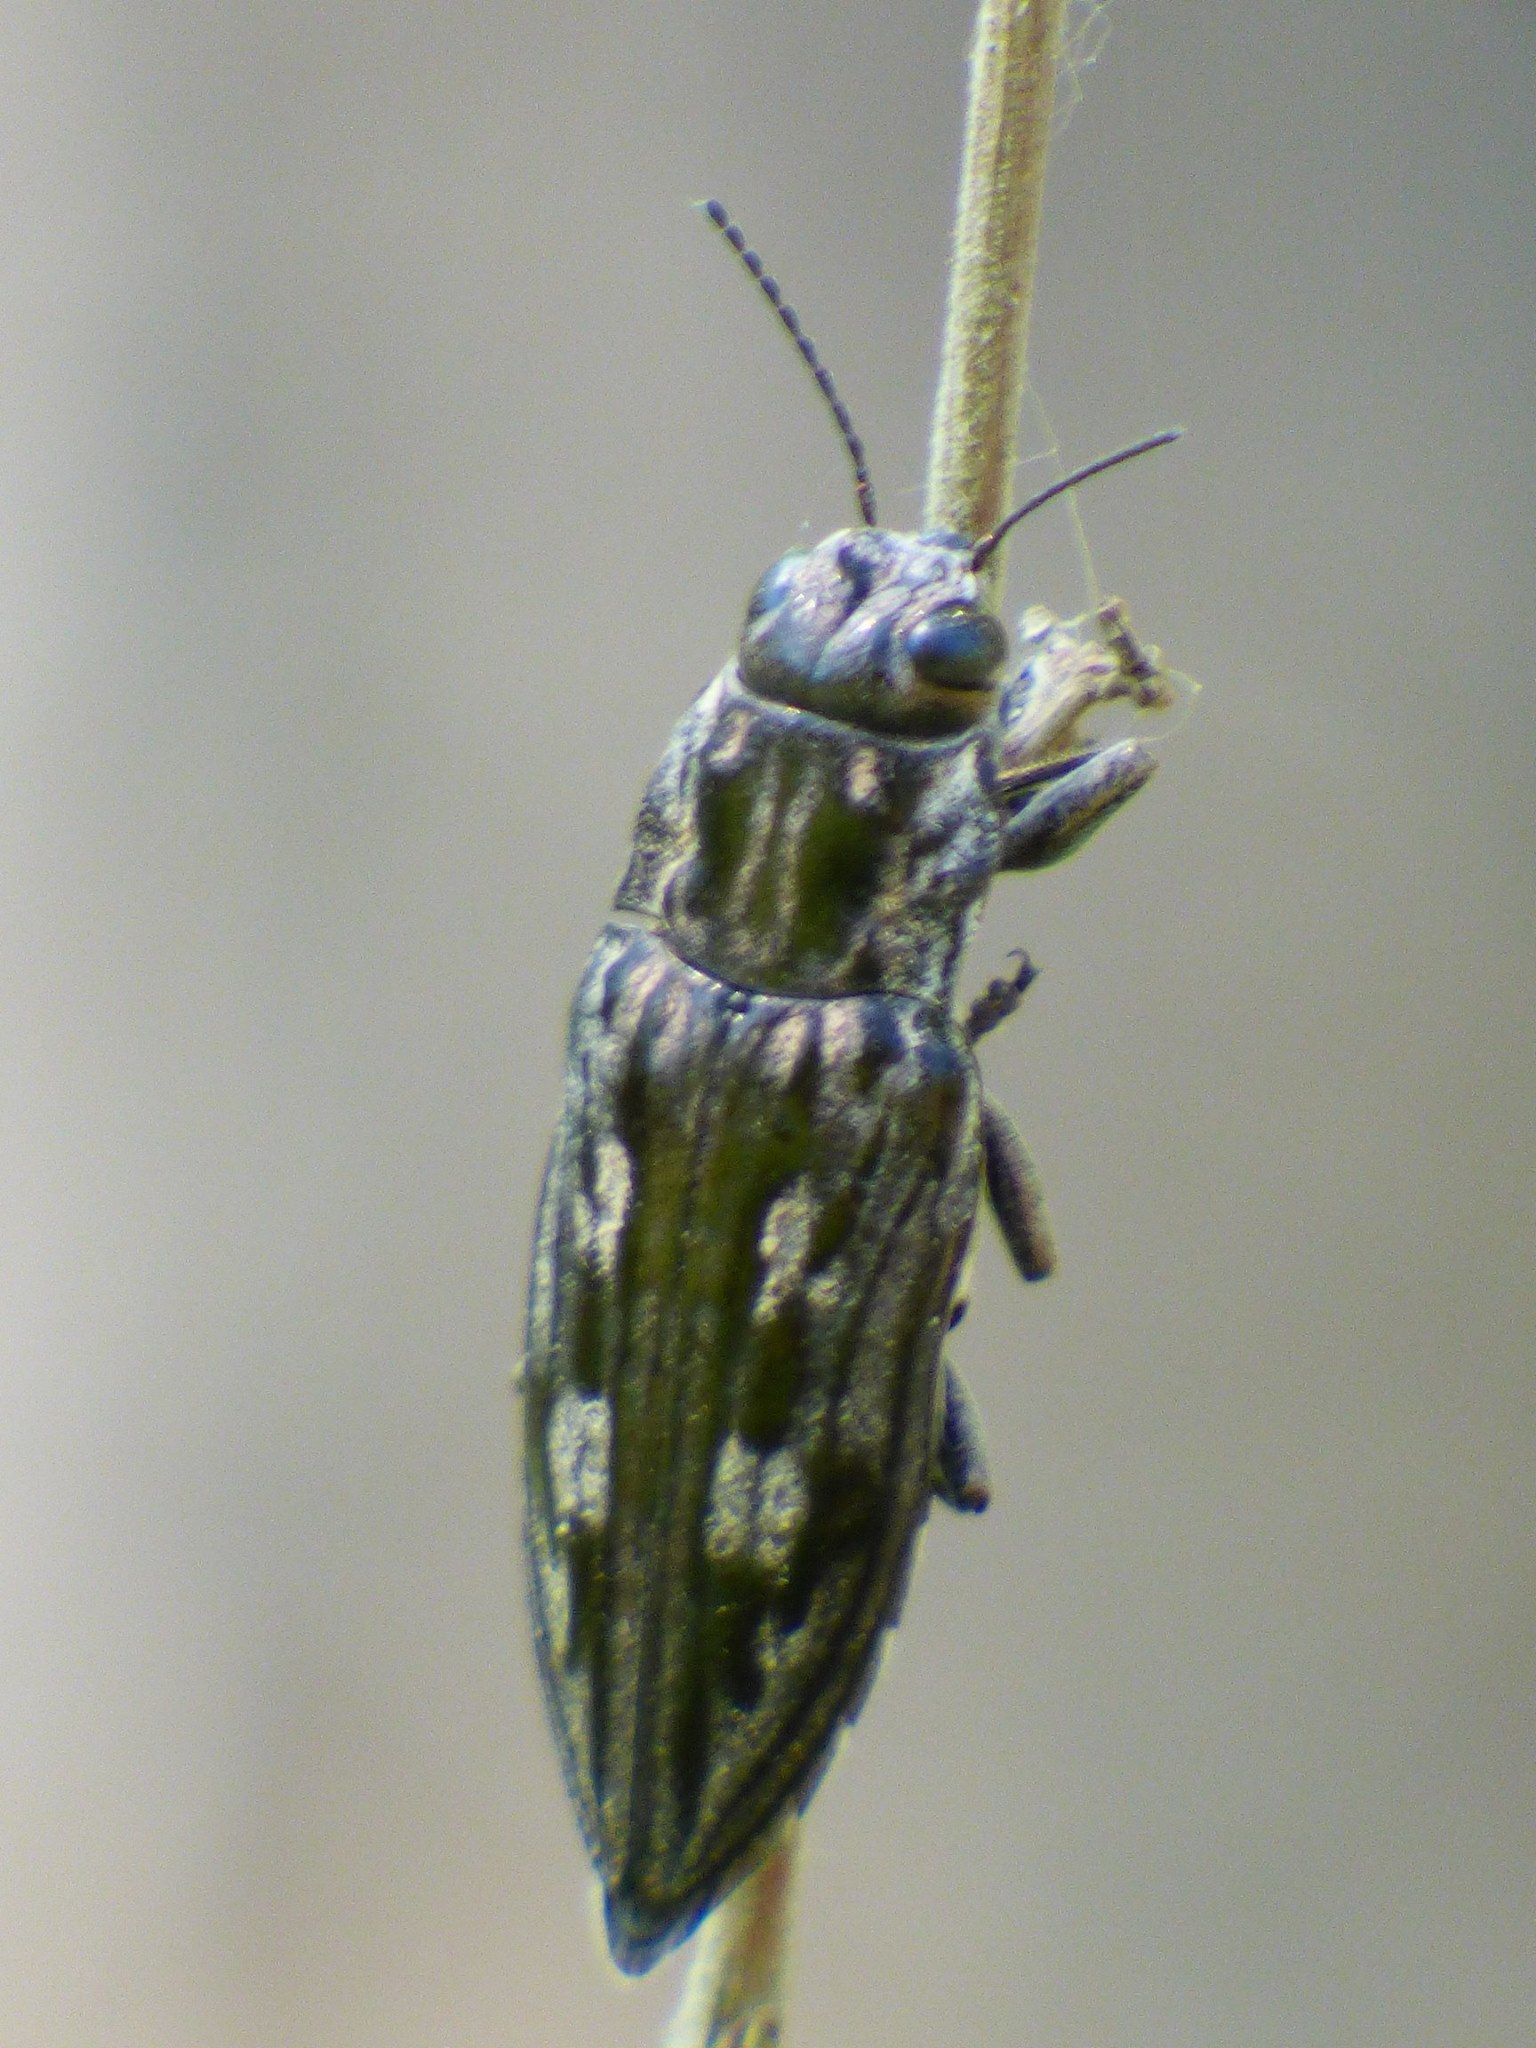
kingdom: Animalia
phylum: Arthropoda
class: Insecta
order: Coleoptera
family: Buprestidae
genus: Chalcophora
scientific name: Chalcophora virginiensis
